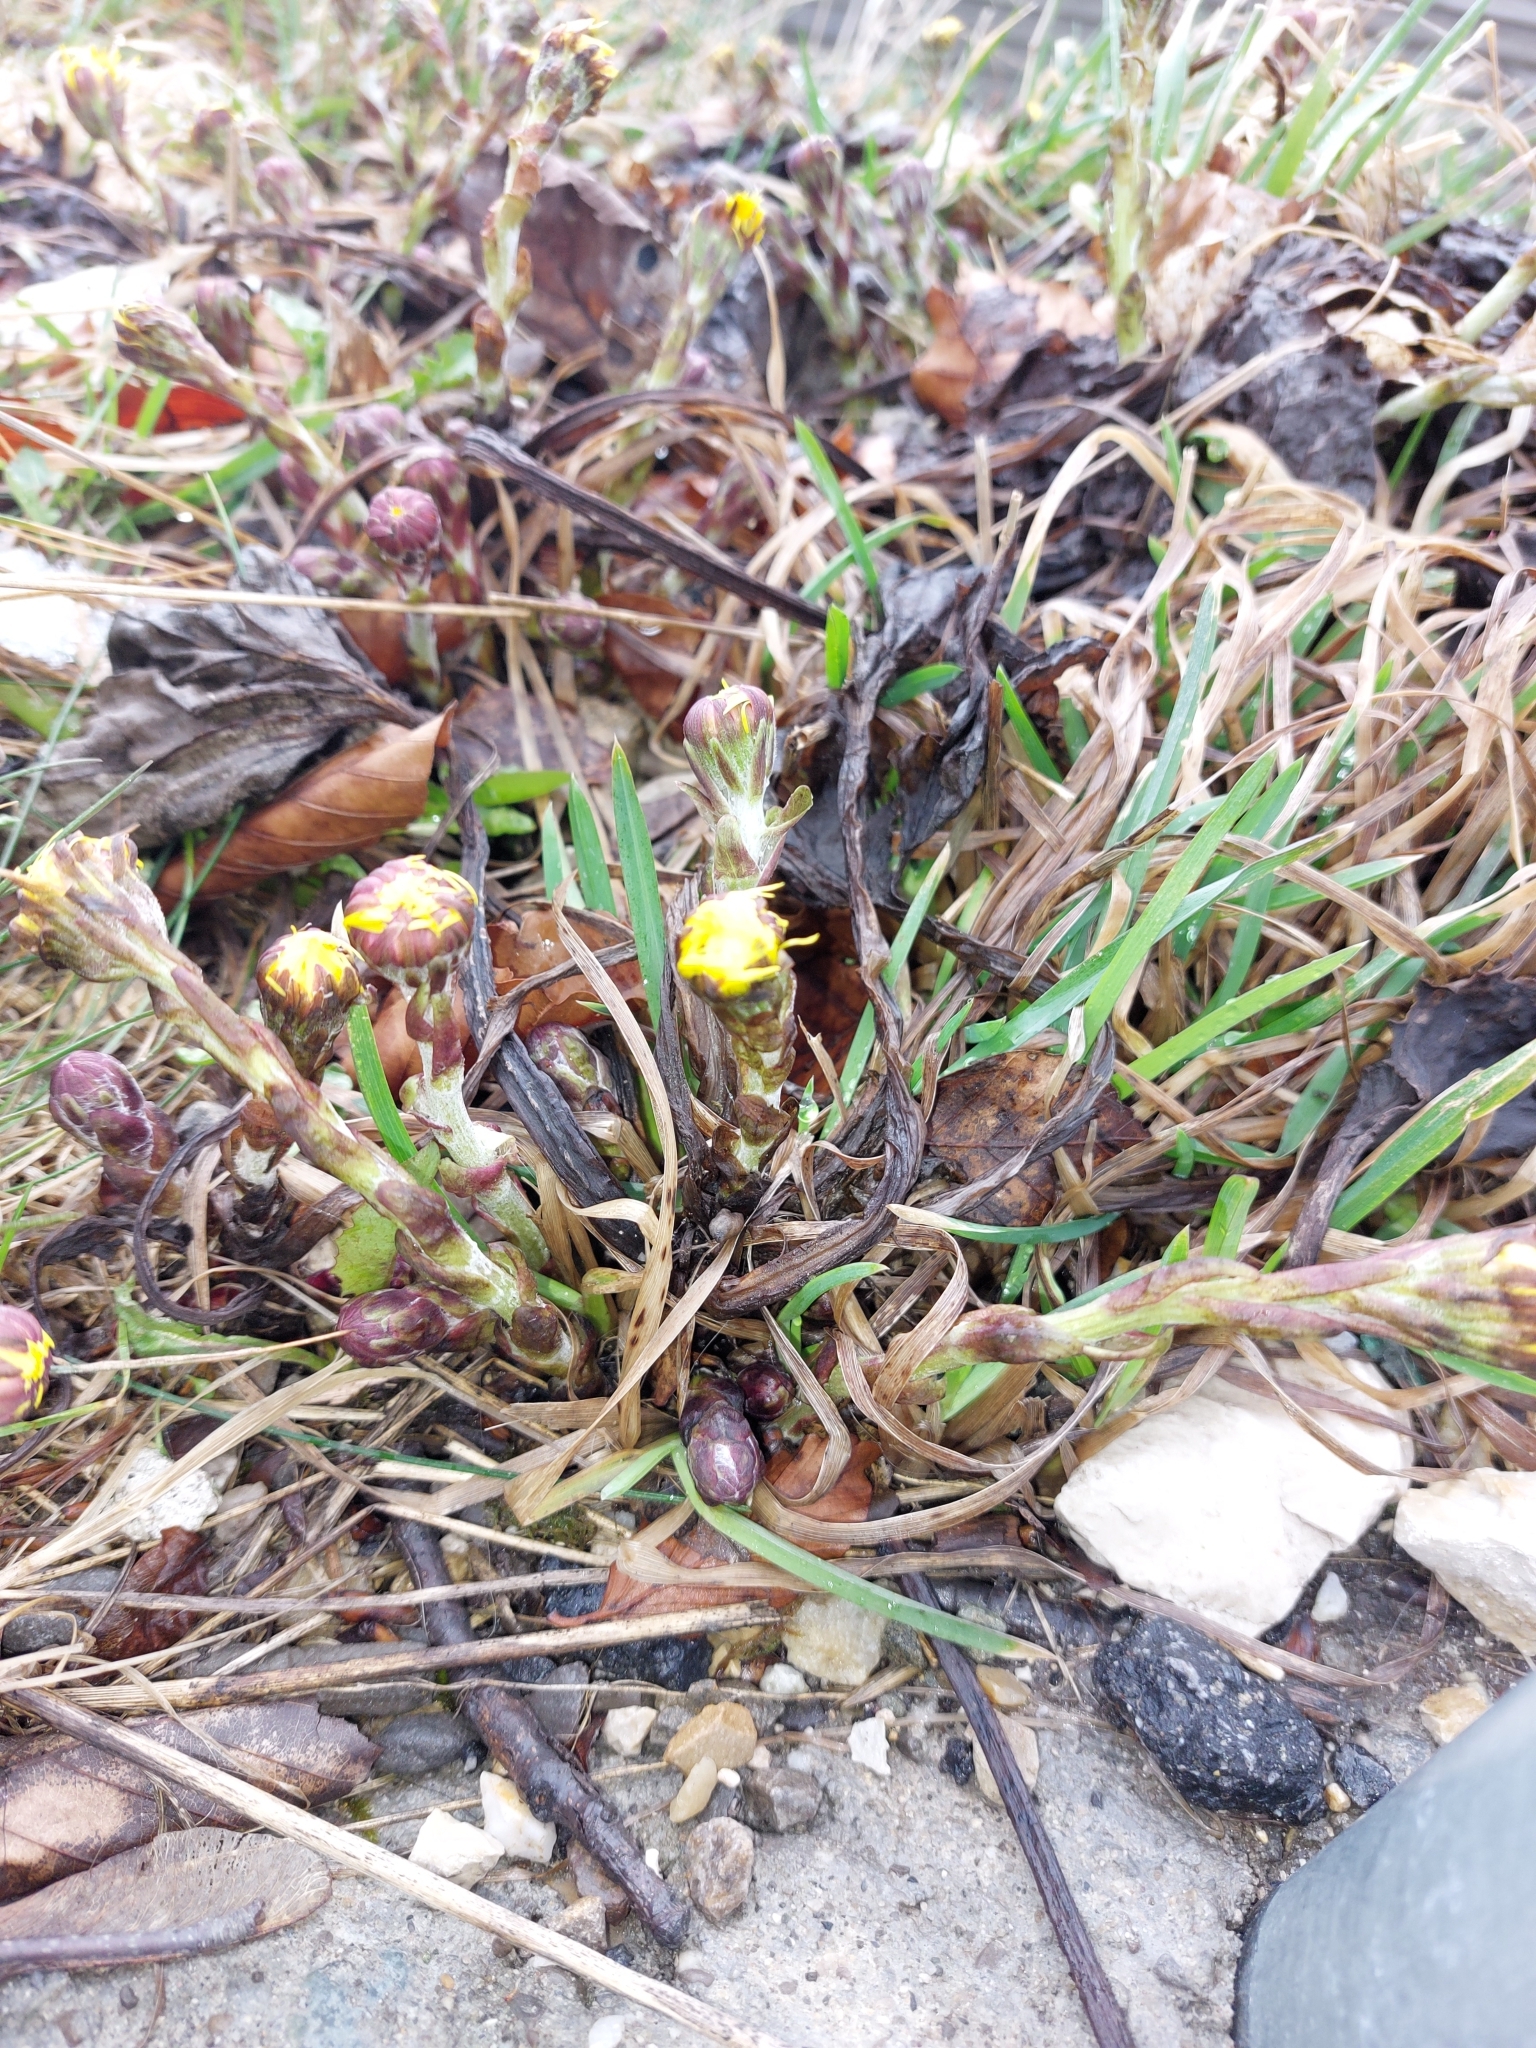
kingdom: Plantae
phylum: Tracheophyta
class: Magnoliopsida
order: Asterales
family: Asteraceae
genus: Tussilago
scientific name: Tussilago farfara
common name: Coltsfoot
